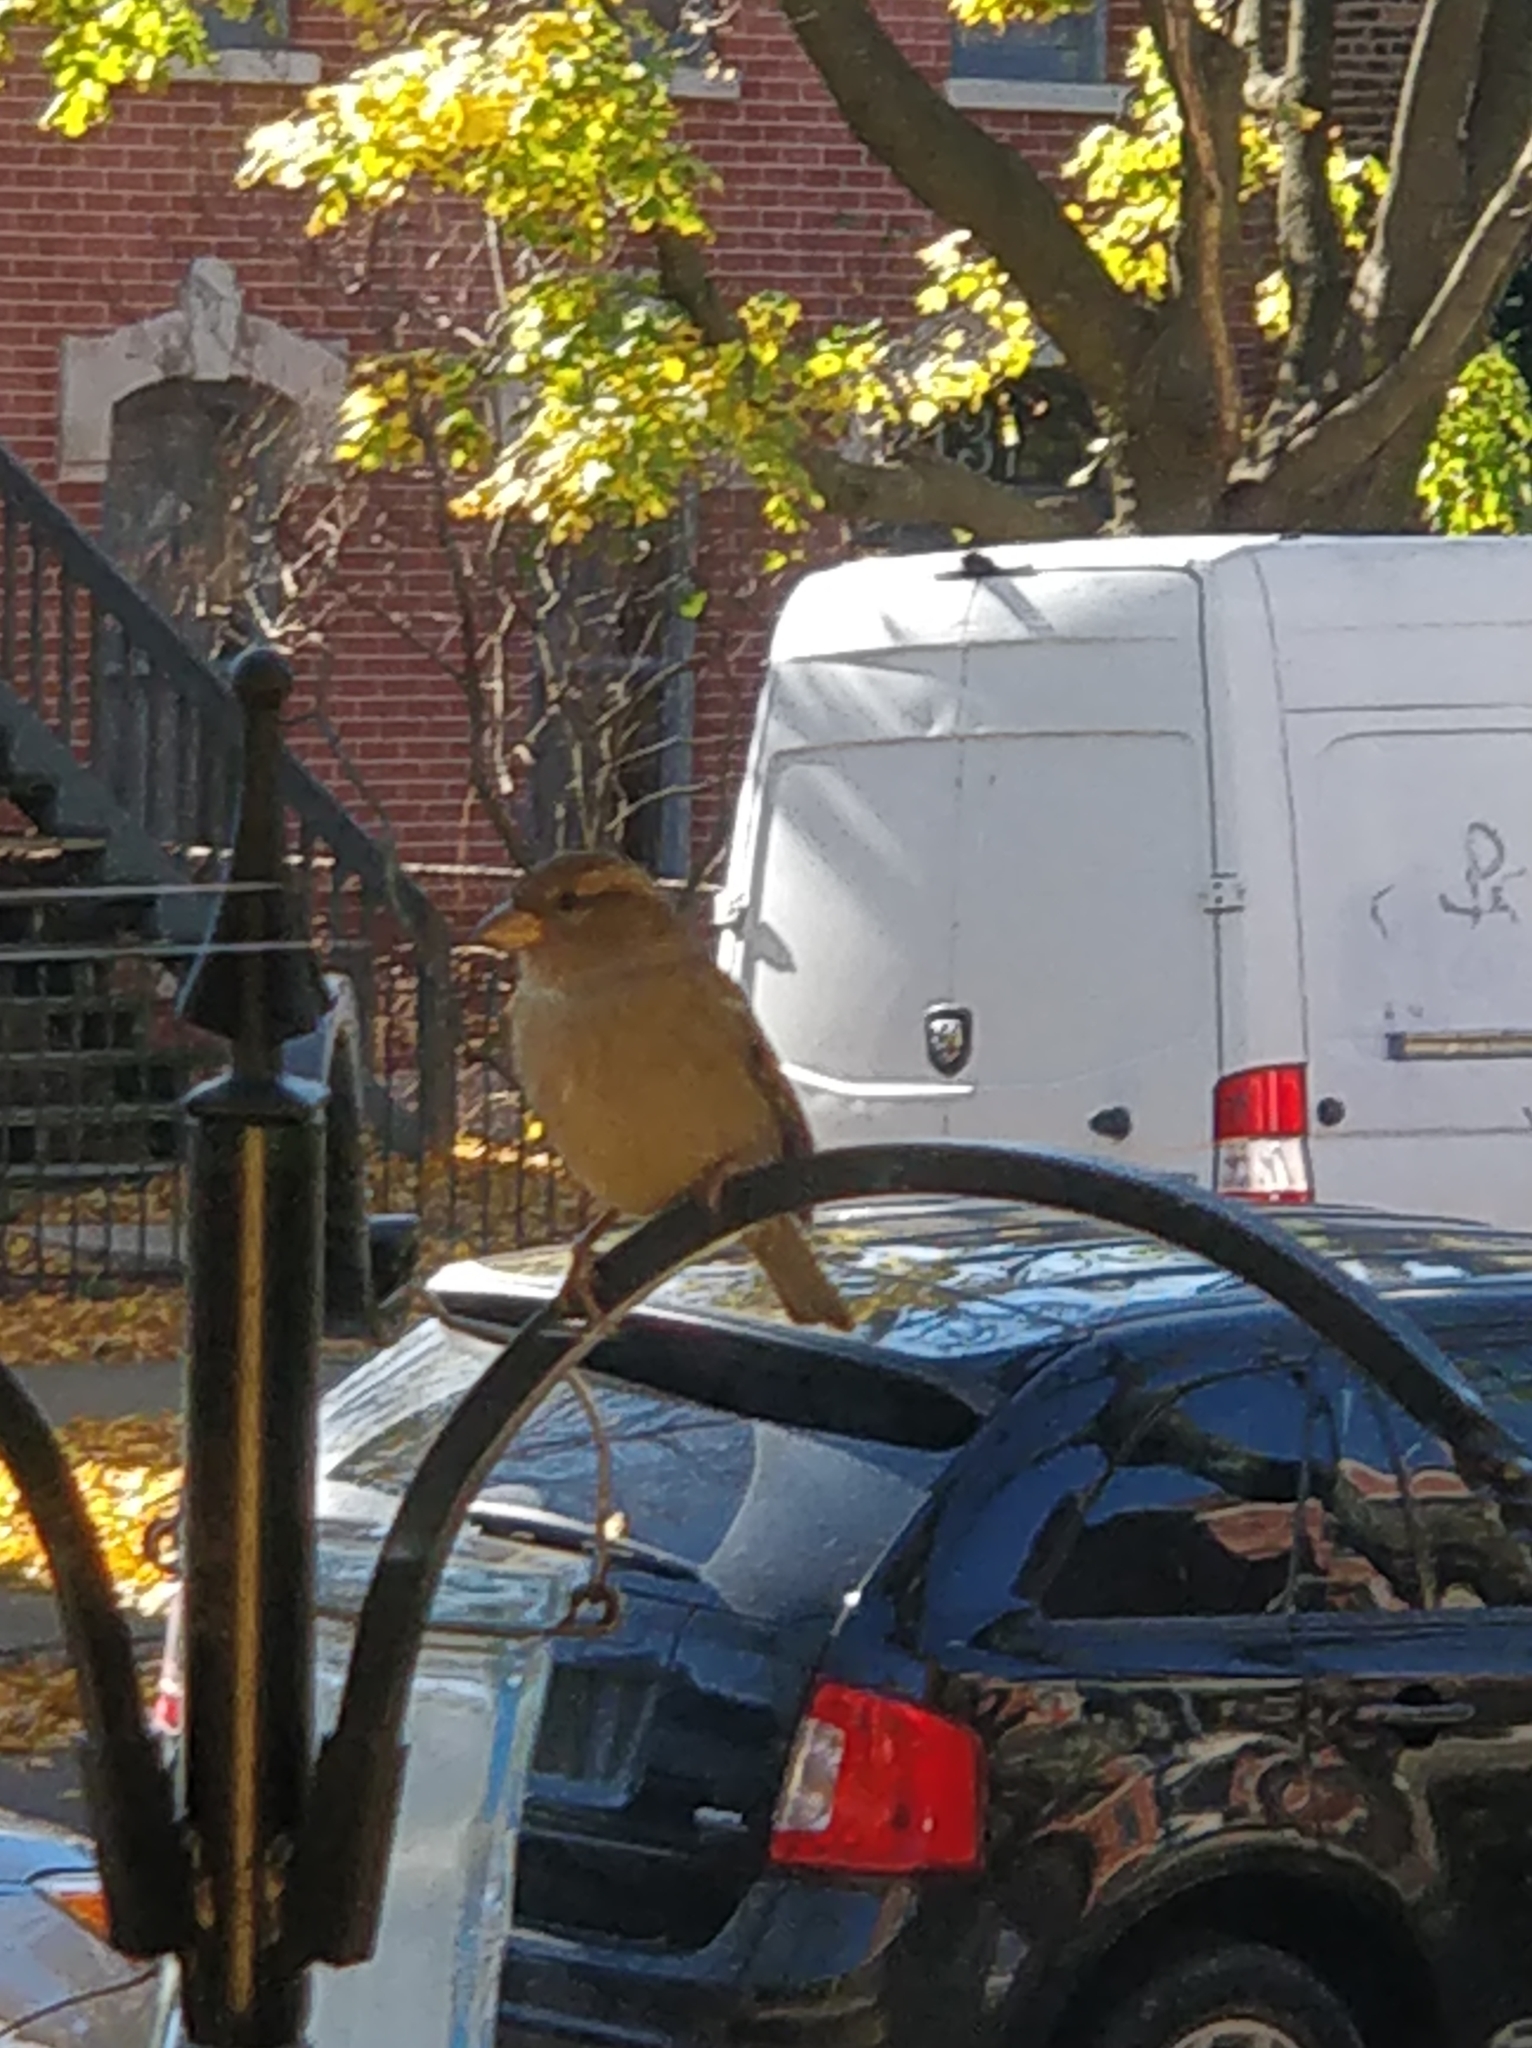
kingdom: Animalia
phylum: Chordata
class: Aves
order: Passeriformes
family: Passeridae
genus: Passer
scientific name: Passer domesticus
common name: House sparrow
